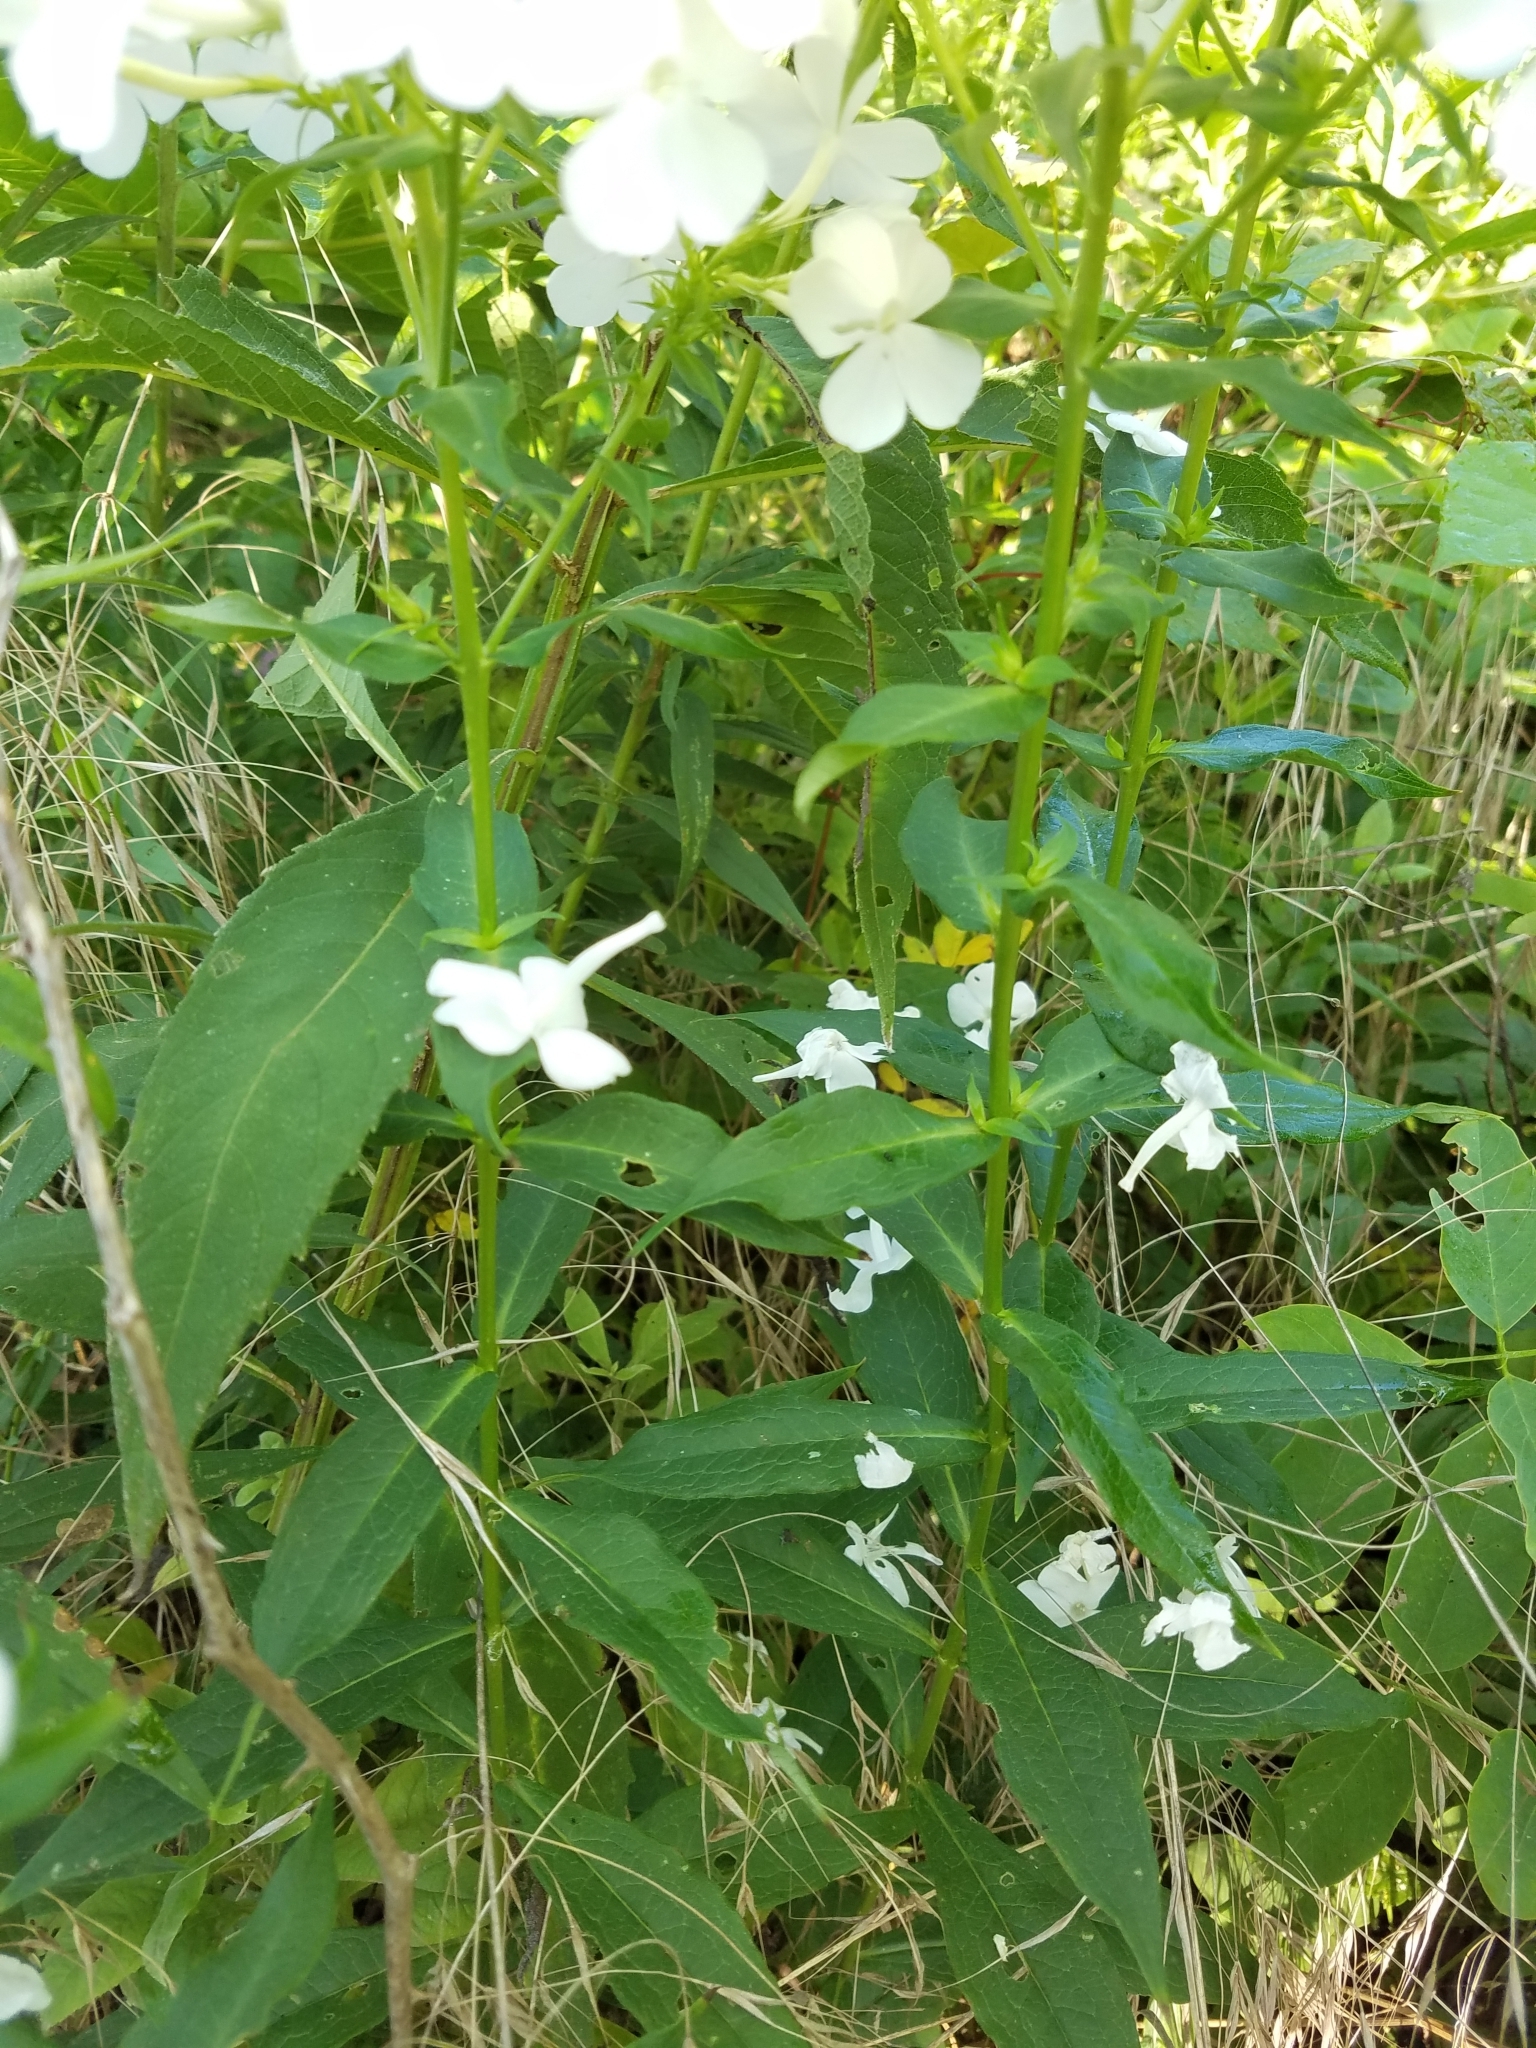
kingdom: Plantae
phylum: Tracheophyta
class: Magnoliopsida
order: Ericales
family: Polemoniaceae
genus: Phlox
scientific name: Phlox paniculata
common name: Fall phlox
